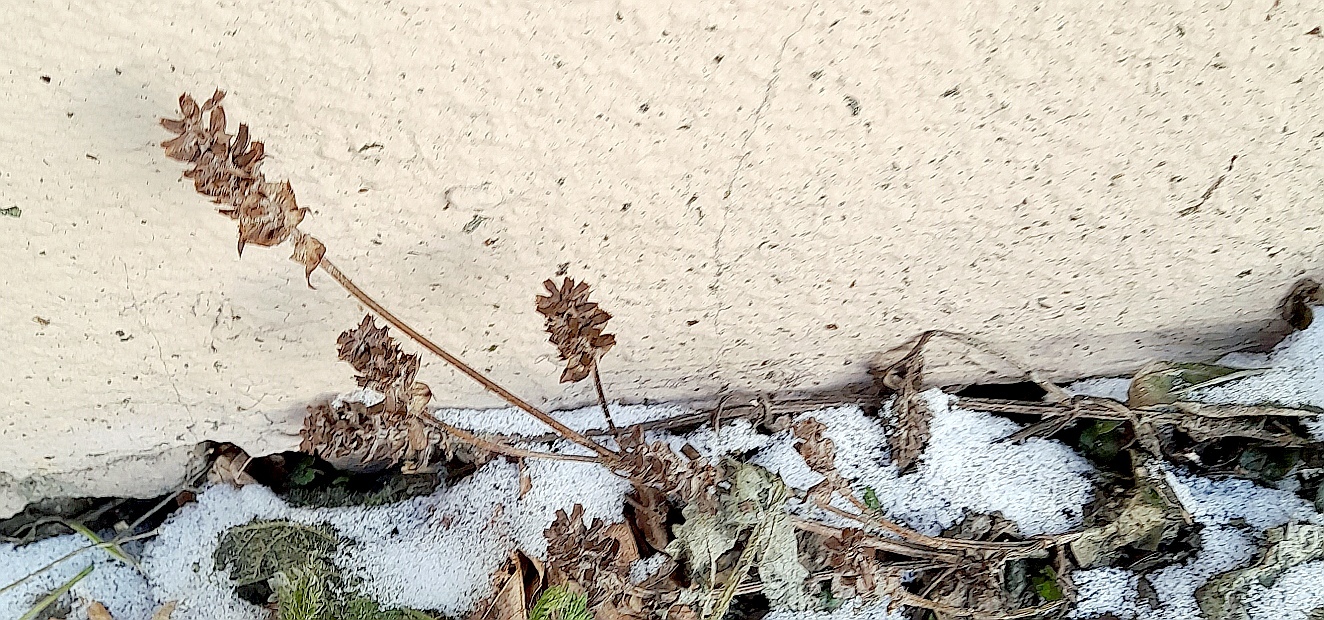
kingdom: Plantae
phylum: Tracheophyta
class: Magnoliopsida
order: Lamiales
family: Lamiaceae
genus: Prunella
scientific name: Prunella vulgaris
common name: Heal-all
